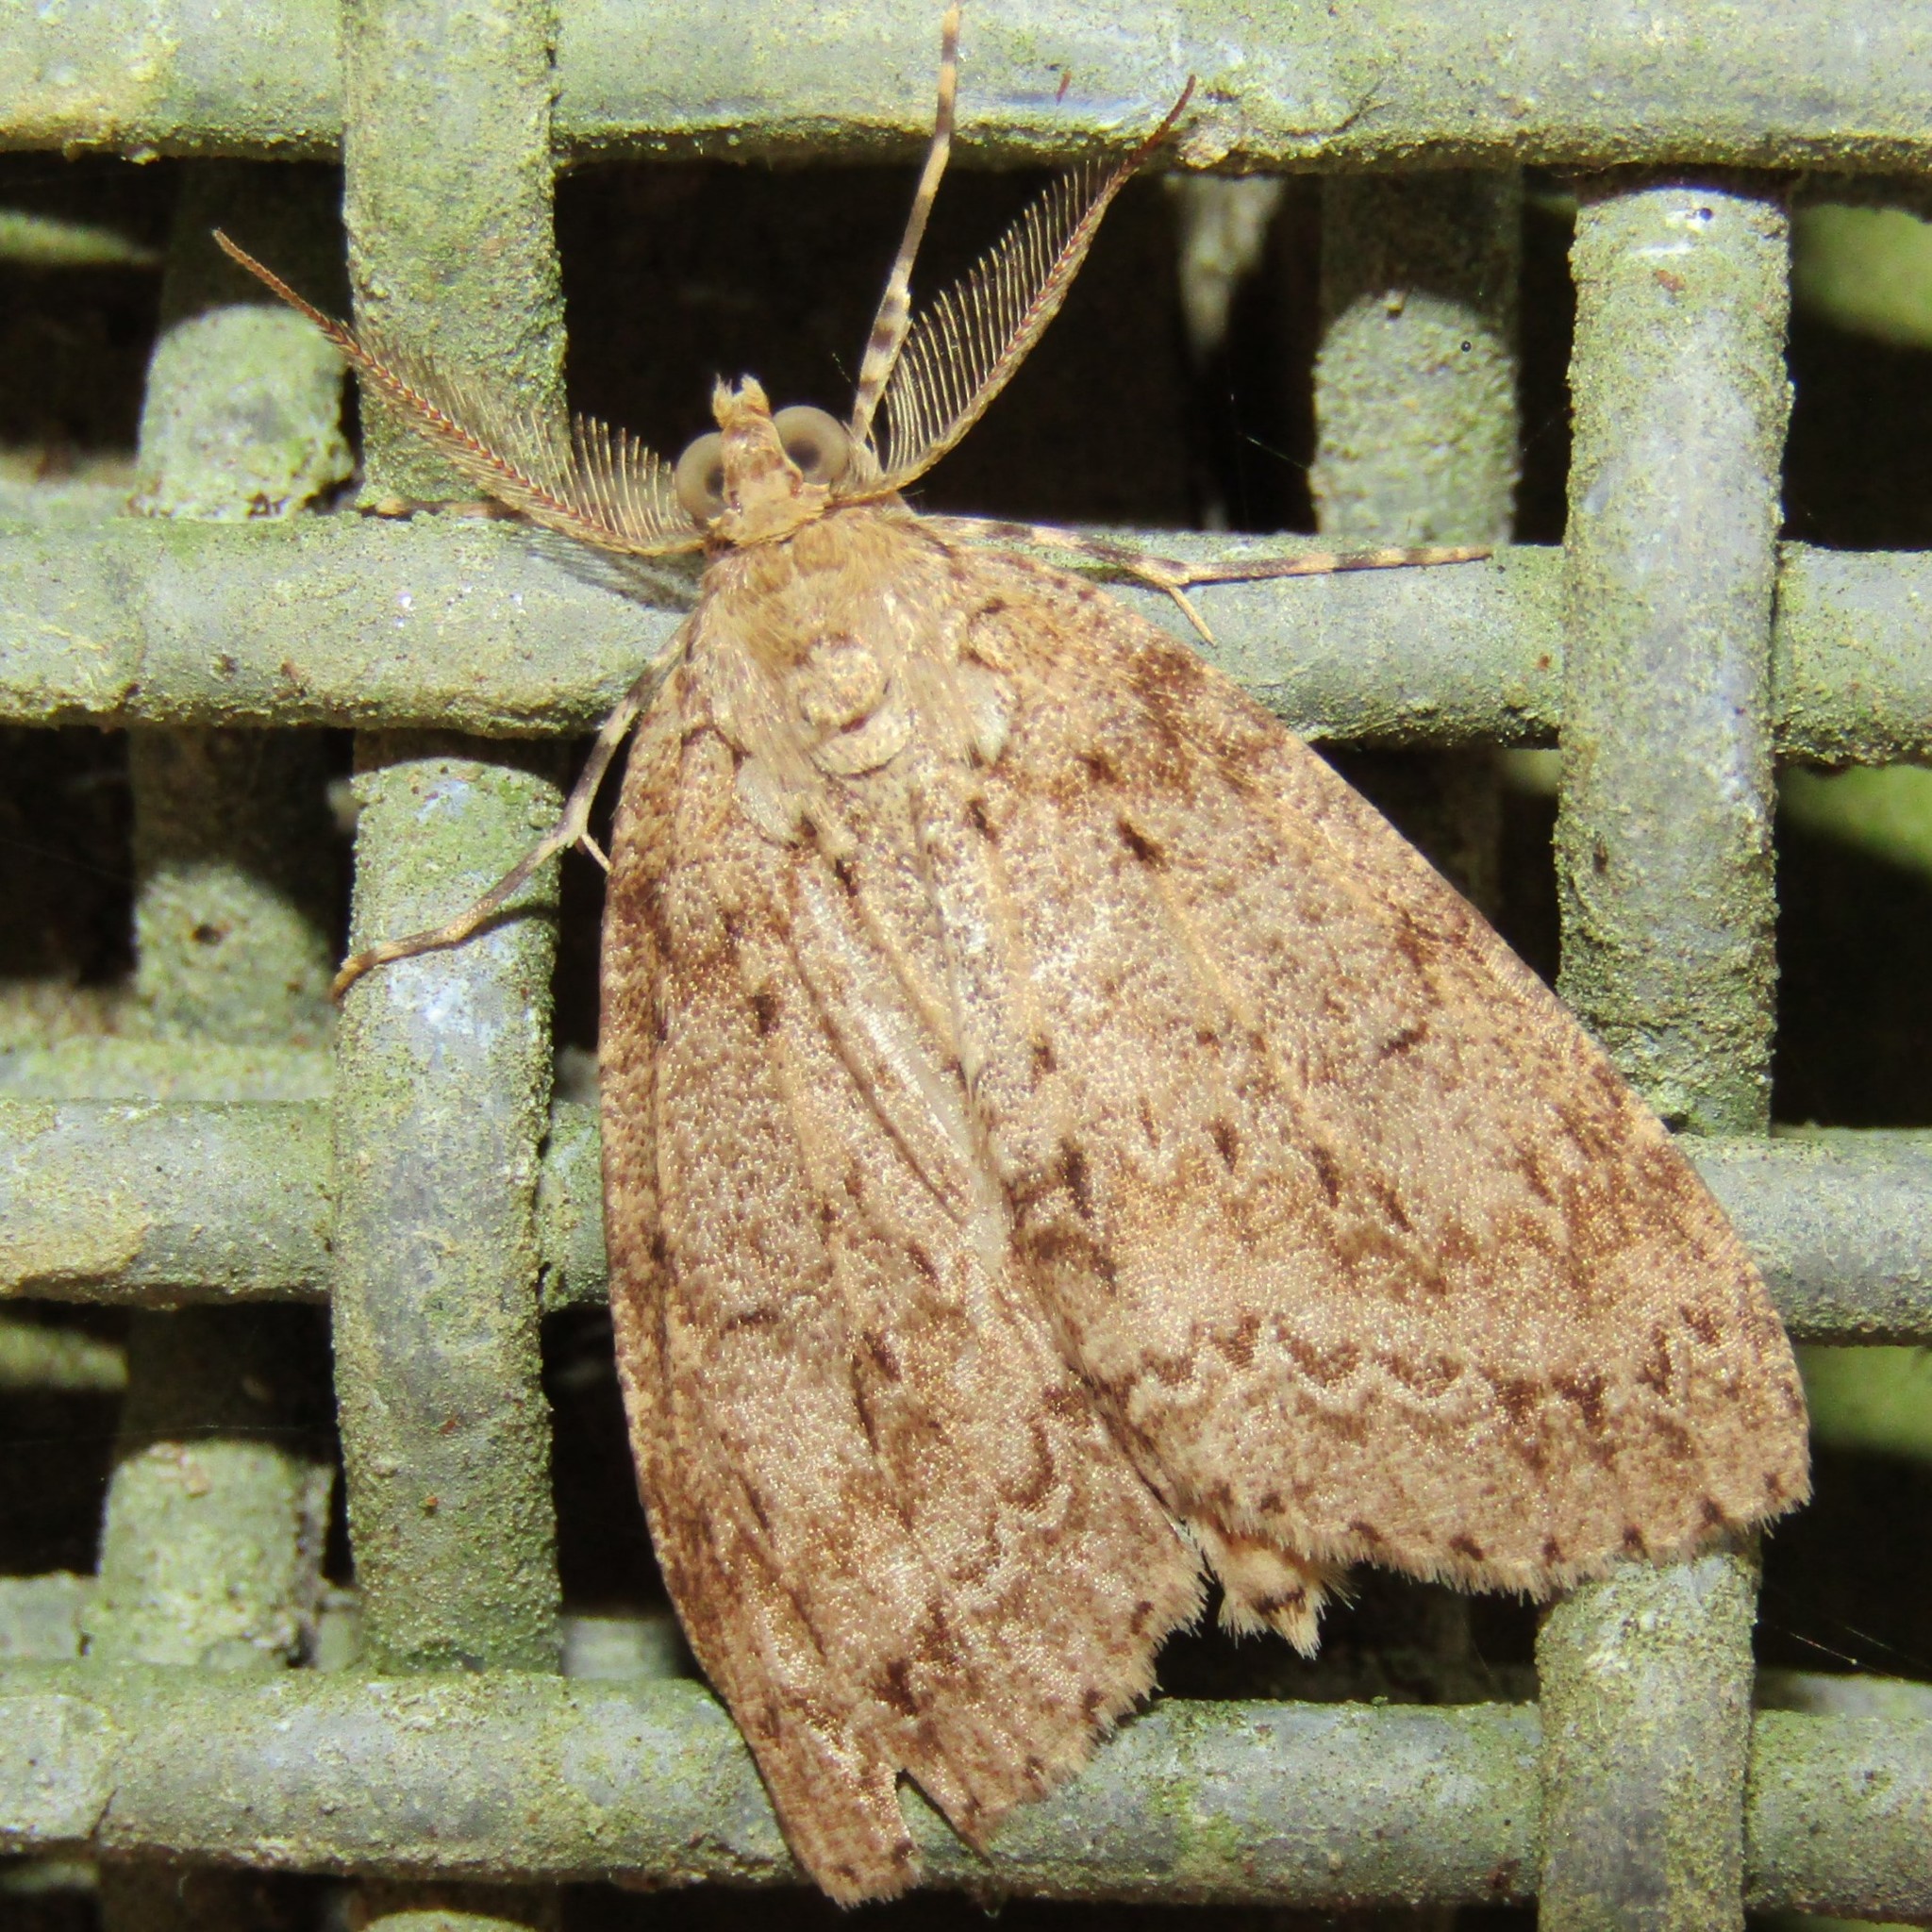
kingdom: Animalia
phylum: Arthropoda
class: Insecta
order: Lepidoptera
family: Geometridae
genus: Pseudocoremia
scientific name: Pseudocoremia fenerata
